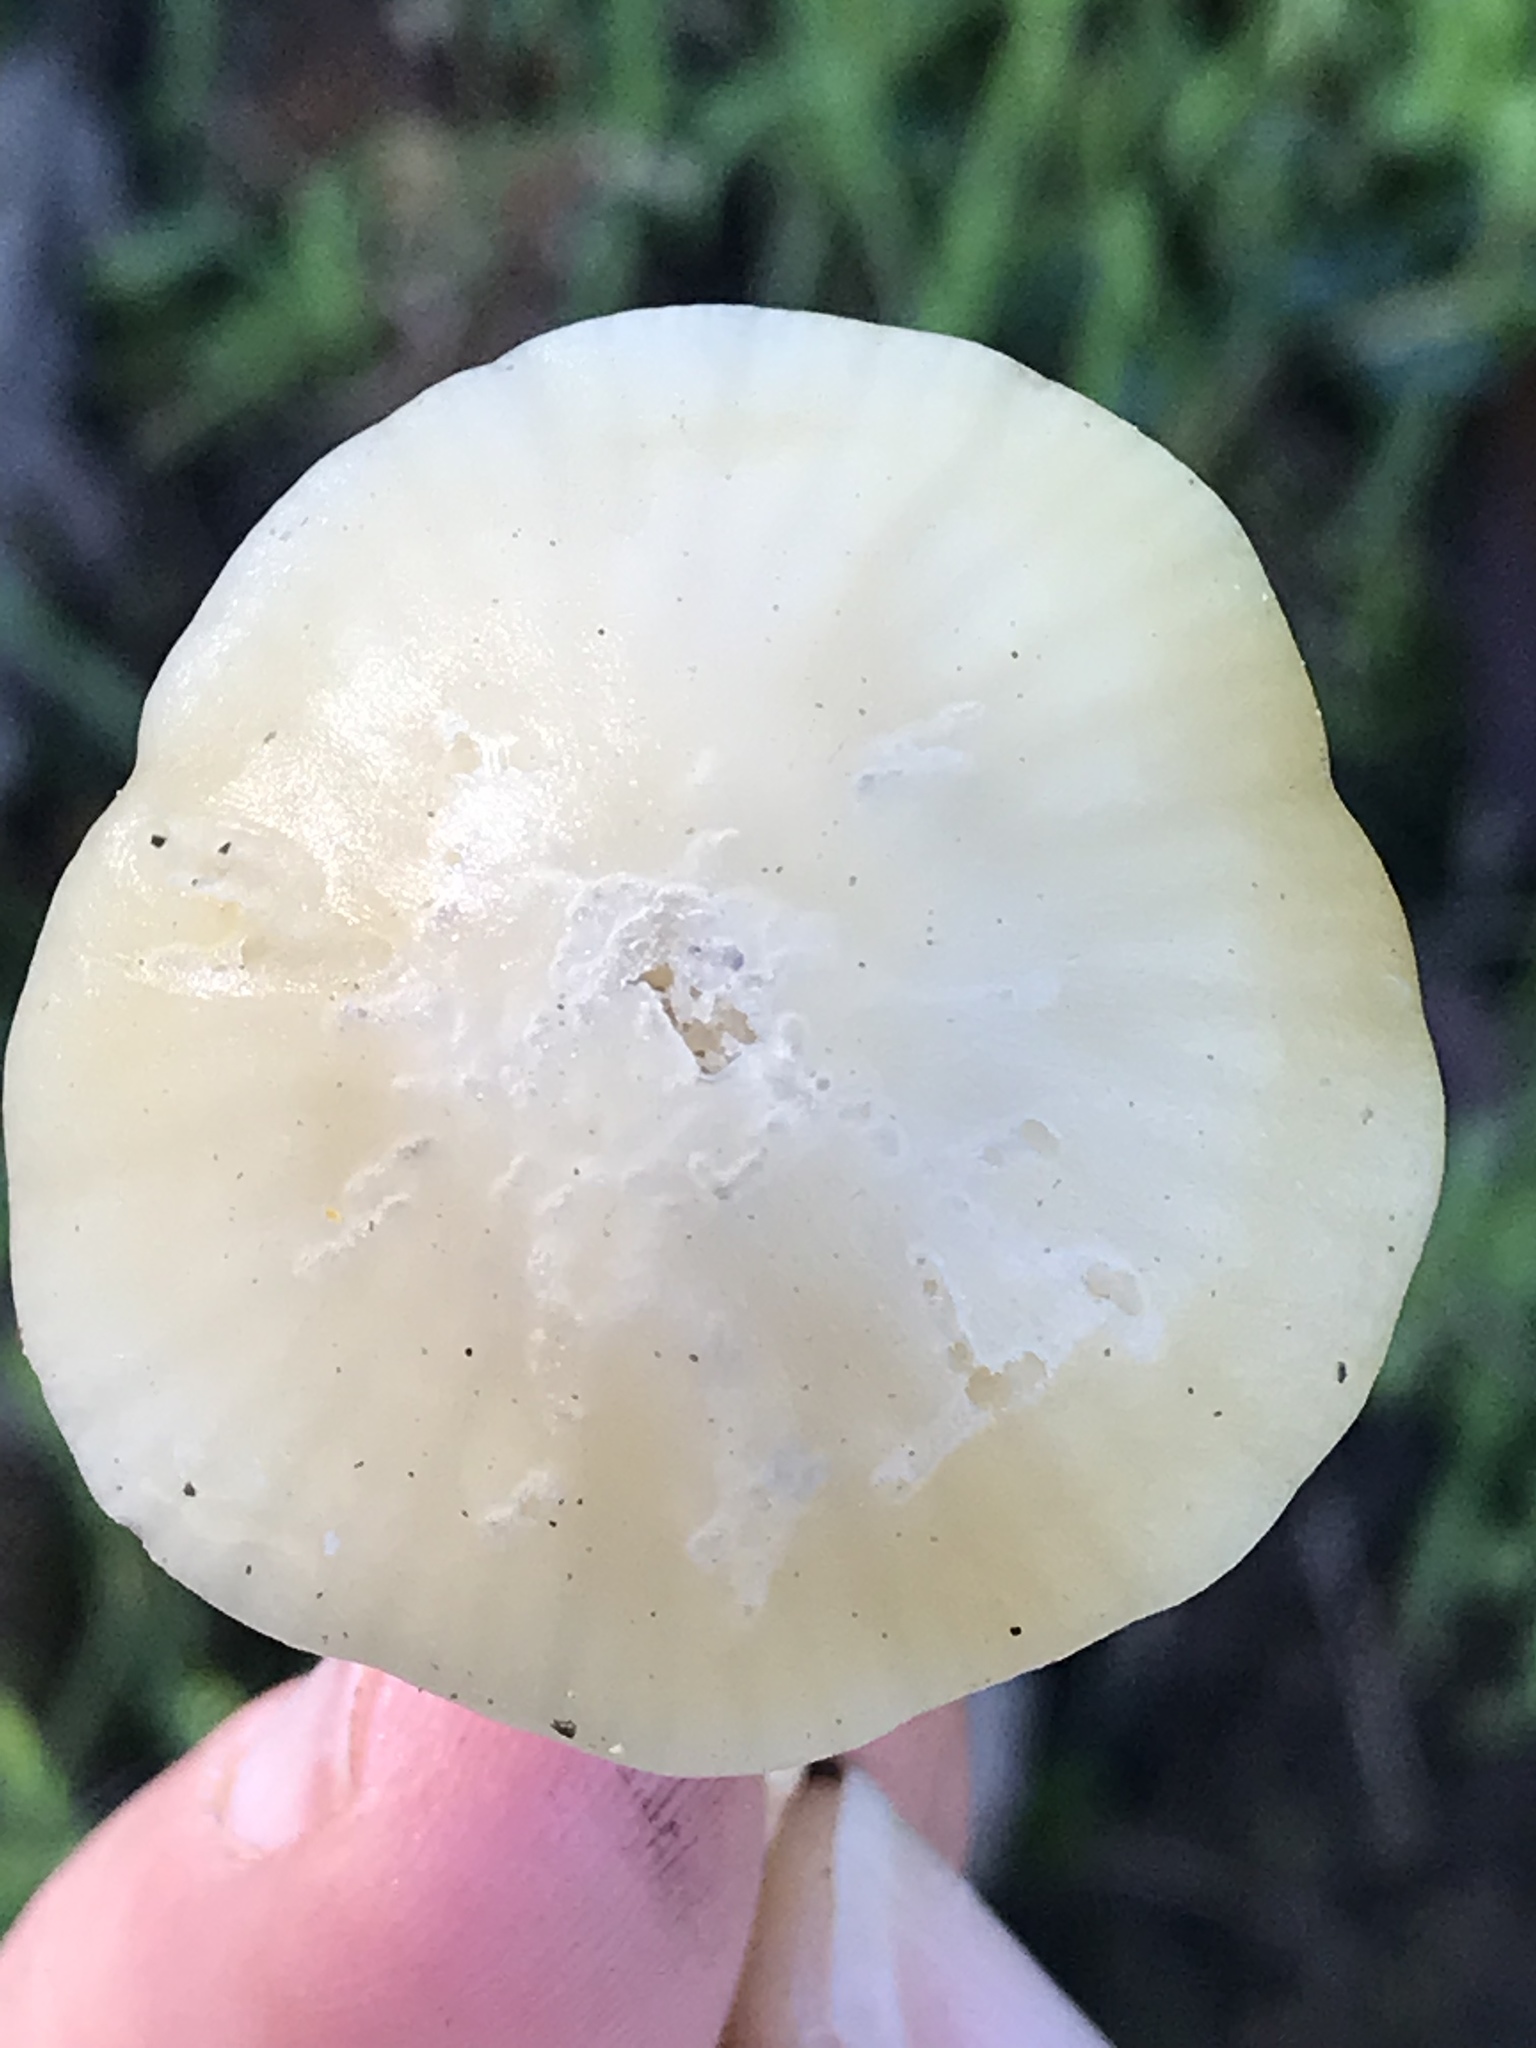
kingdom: Fungi
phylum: Basidiomycota
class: Agaricomycetes
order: Agaricales
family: Hygrophoraceae
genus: Cuphophyllus
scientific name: Cuphophyllus virgineus
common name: Snowy waxcap
